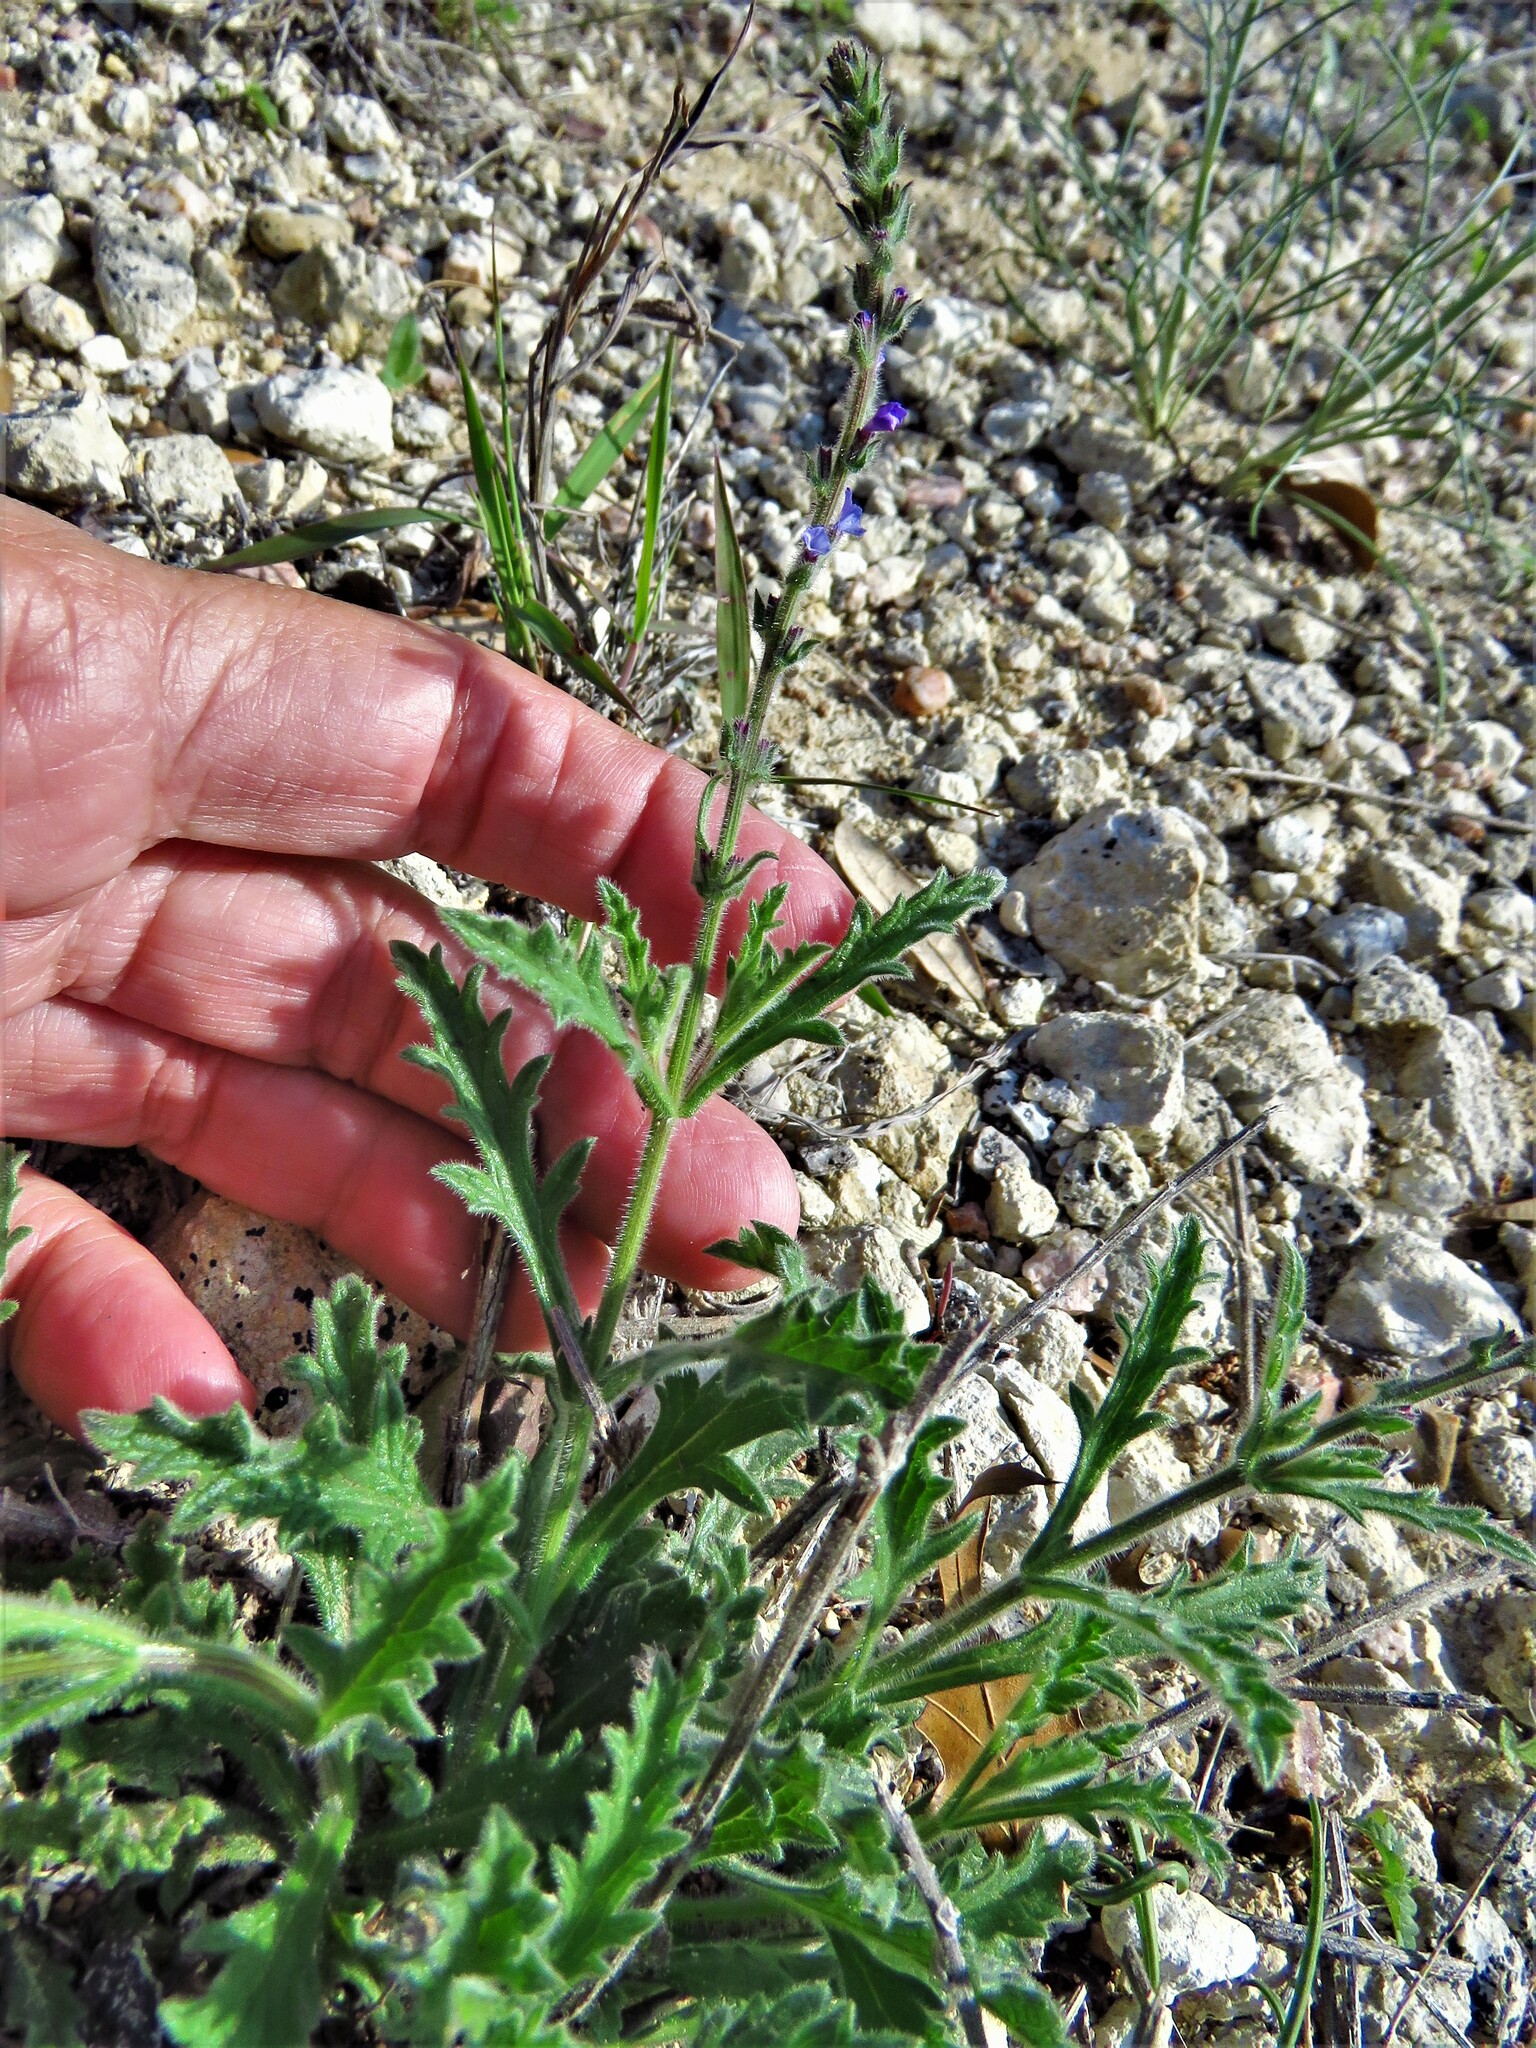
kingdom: Plantae
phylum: Tracheophyta
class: Magnoliopsida
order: Lamiales
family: Verbenaceae
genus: Verbena
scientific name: Verbena canescens
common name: Gray vervain
